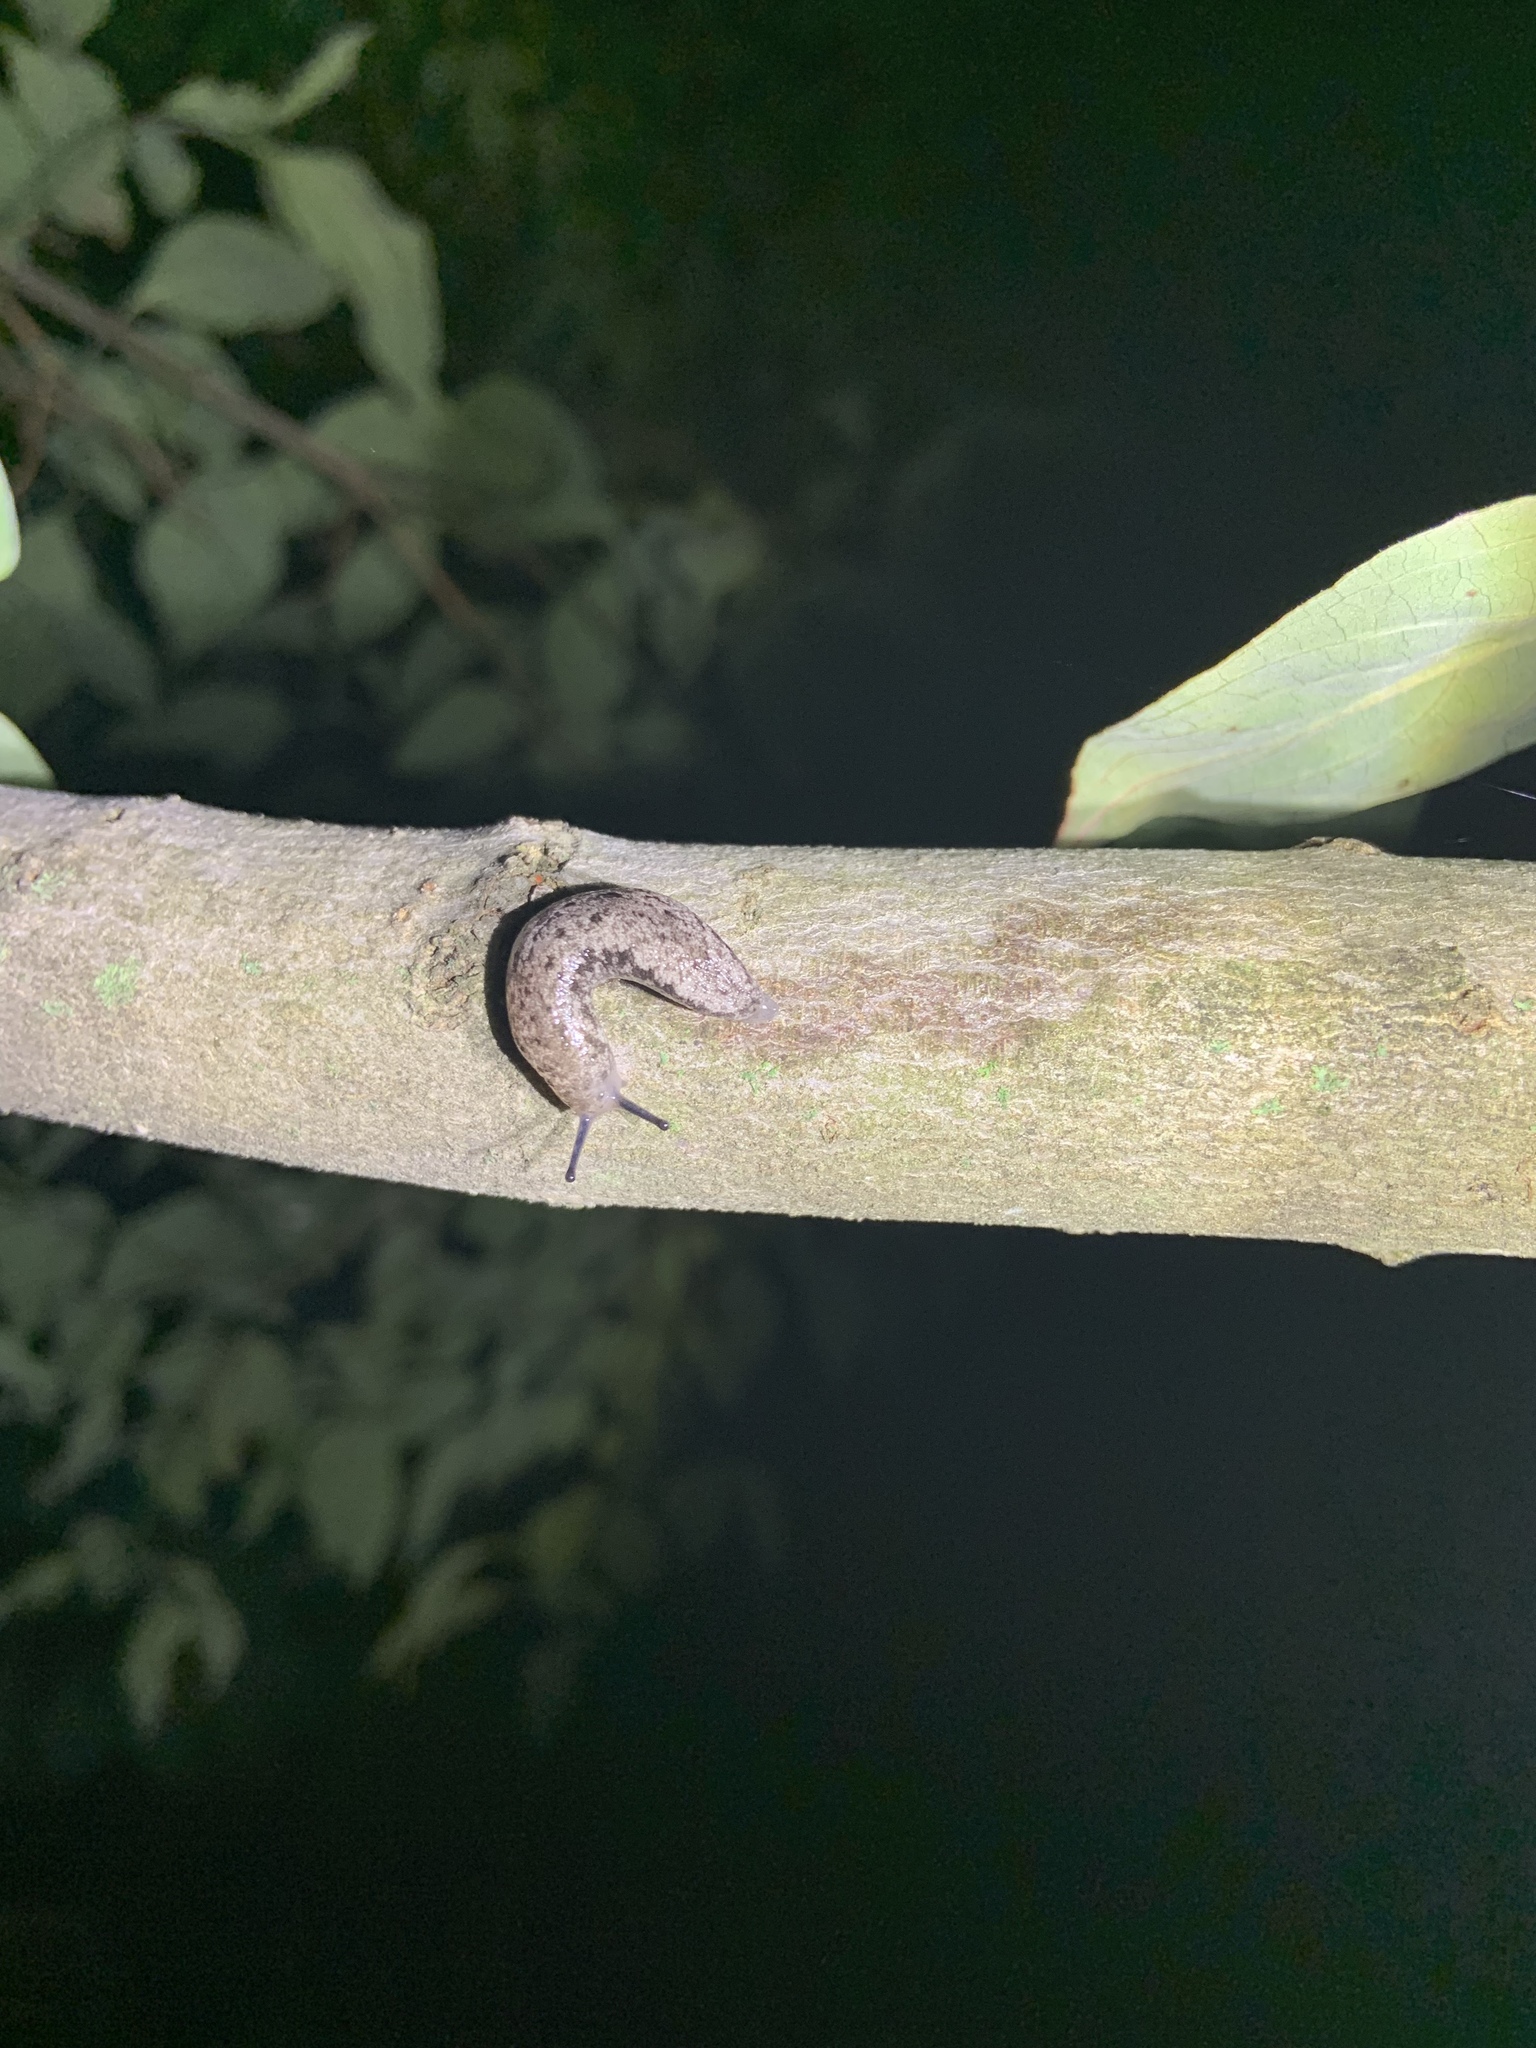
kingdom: Animalia
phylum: Mollusca
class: Gastropoda
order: Stylommatophora
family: Philomycidae
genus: Megapallifera
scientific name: Megapallifera mutabilis
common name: Changeable mantleslug
